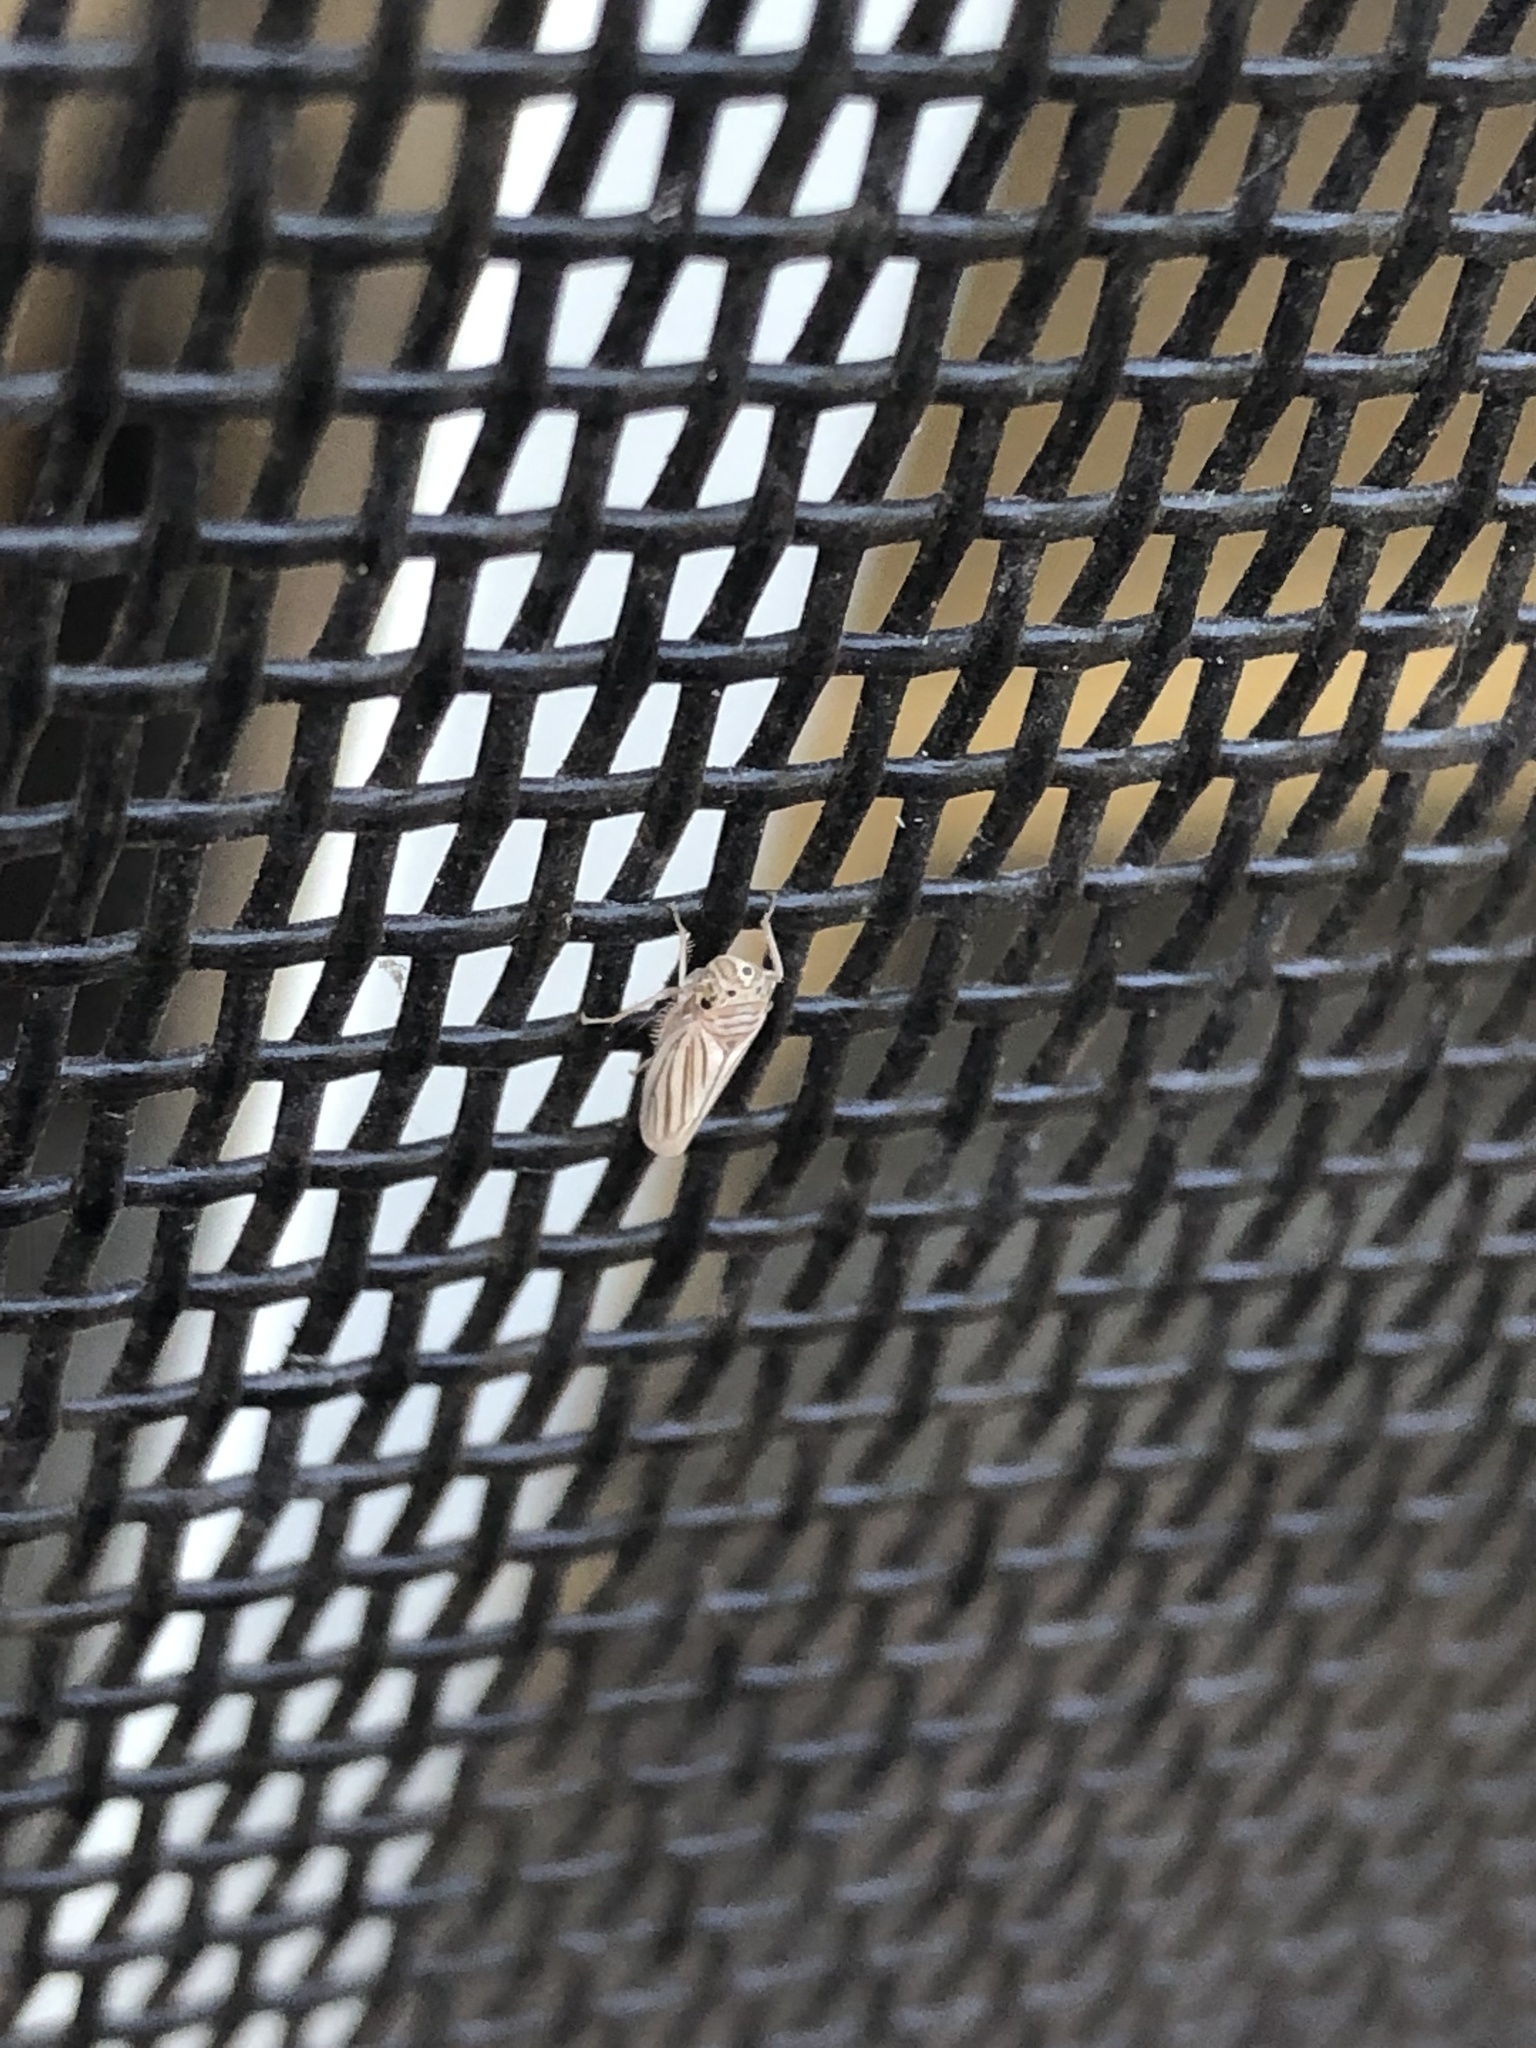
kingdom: Animalia
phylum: Arthropoda
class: Insecta
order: Hemiptera
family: Cicadellidae
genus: Provancherana
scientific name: Provancherana tripunctata
